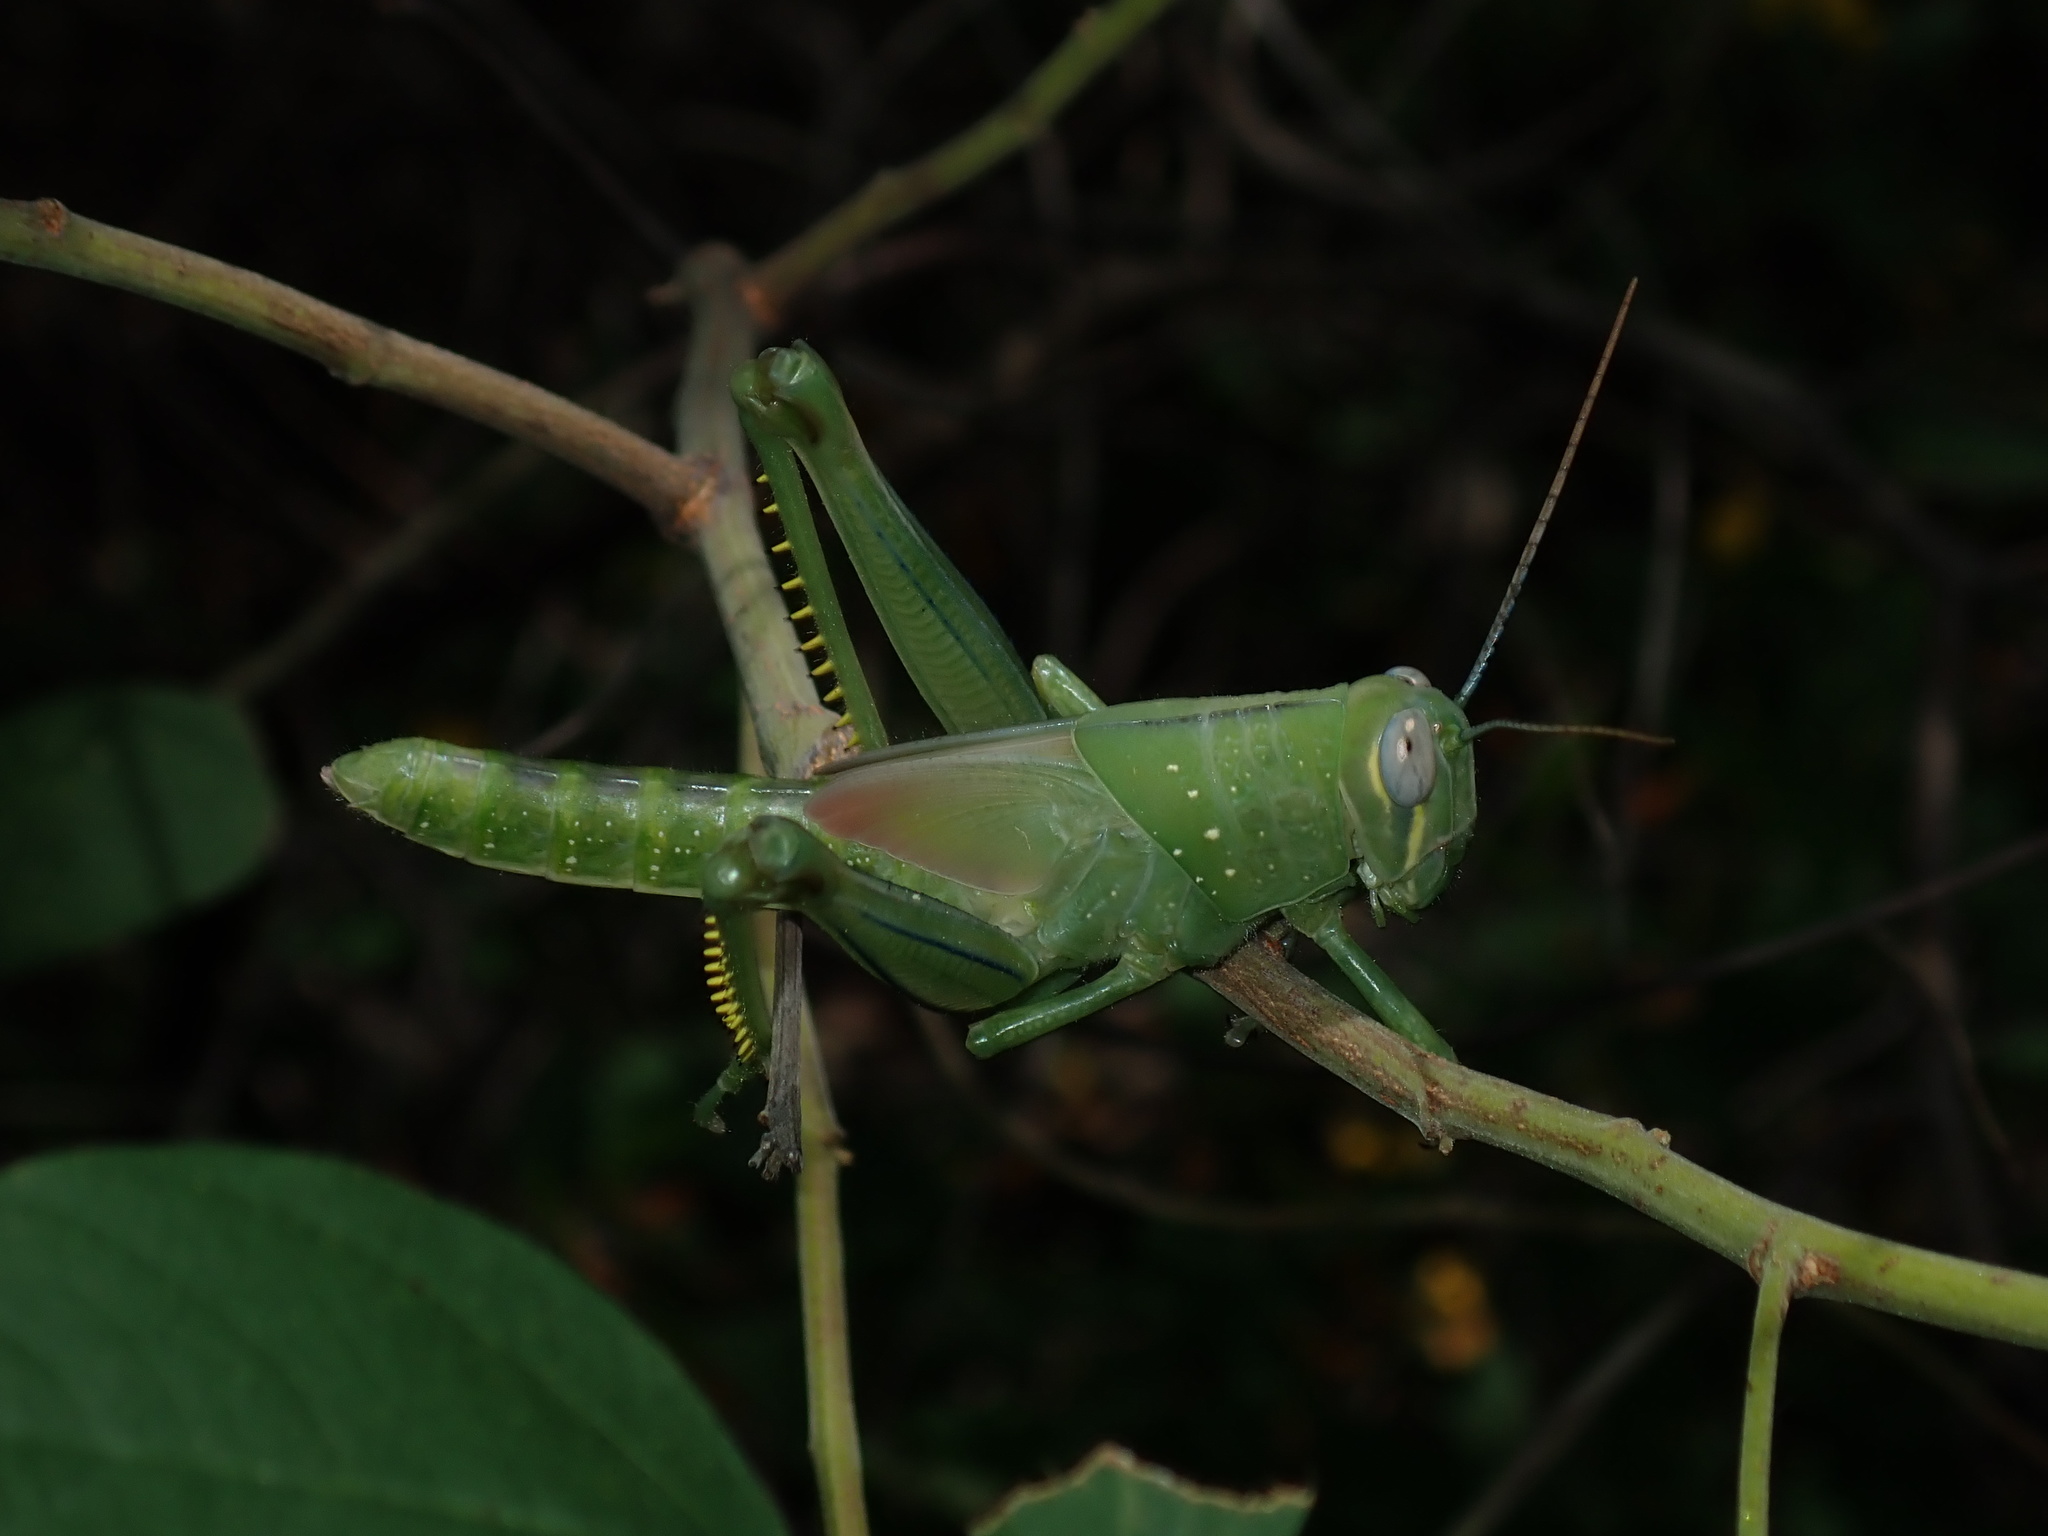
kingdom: Animalia
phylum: Arthropoda
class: Insecta
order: Orthoptera
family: Acrididae
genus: Valanga
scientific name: Valanga irregularis
